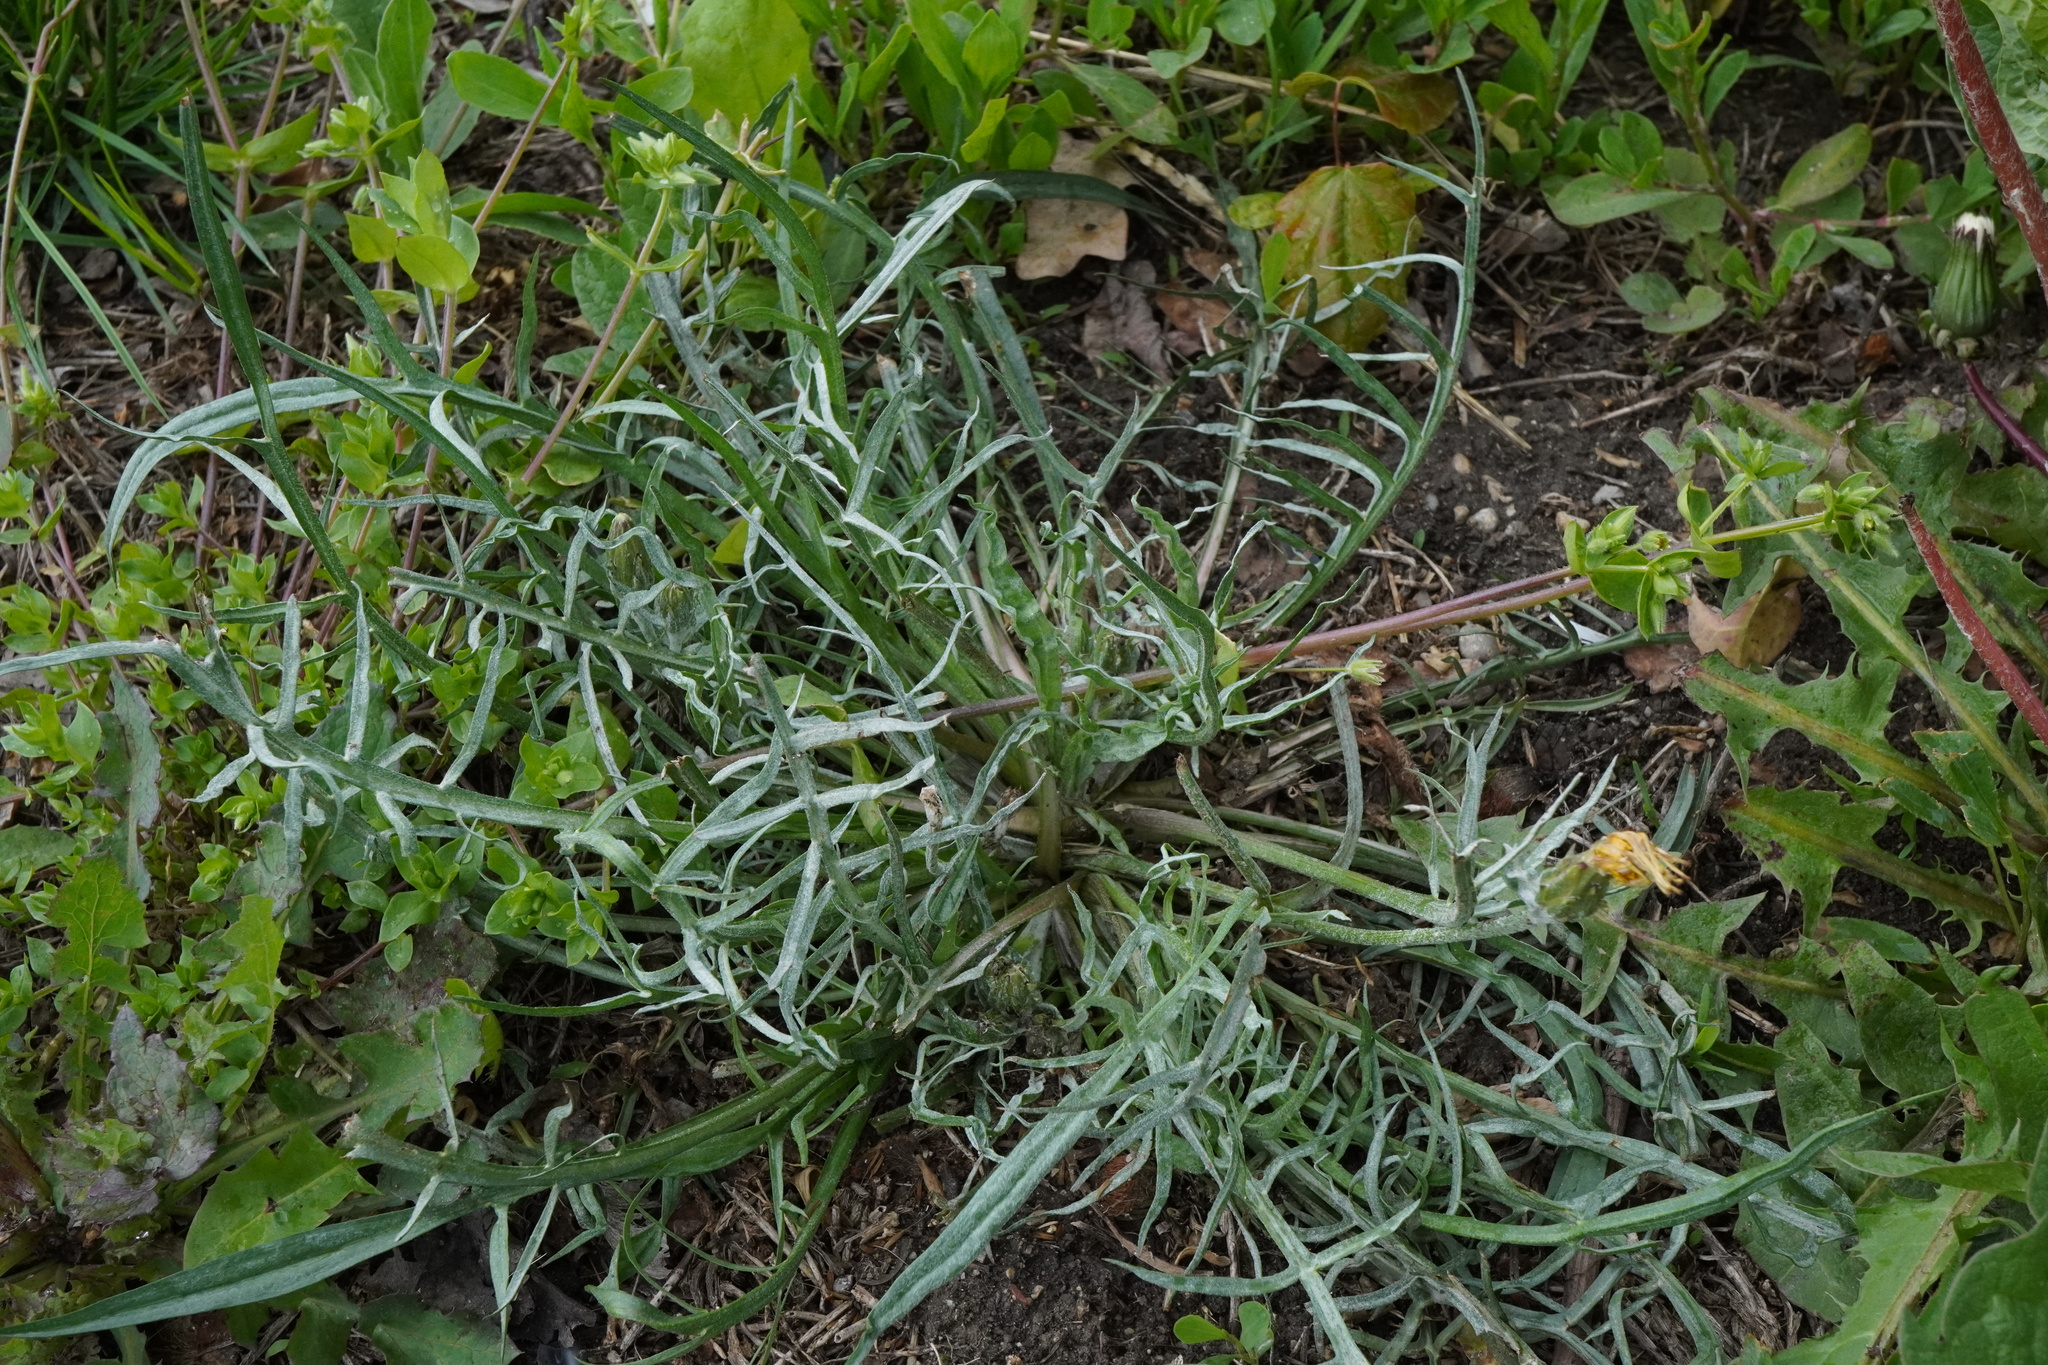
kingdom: Plantae
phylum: Tracheophyta
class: Magnoliopsida
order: Asterales
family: Asteraceae
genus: Scorzonera
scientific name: Scorzonera cana
